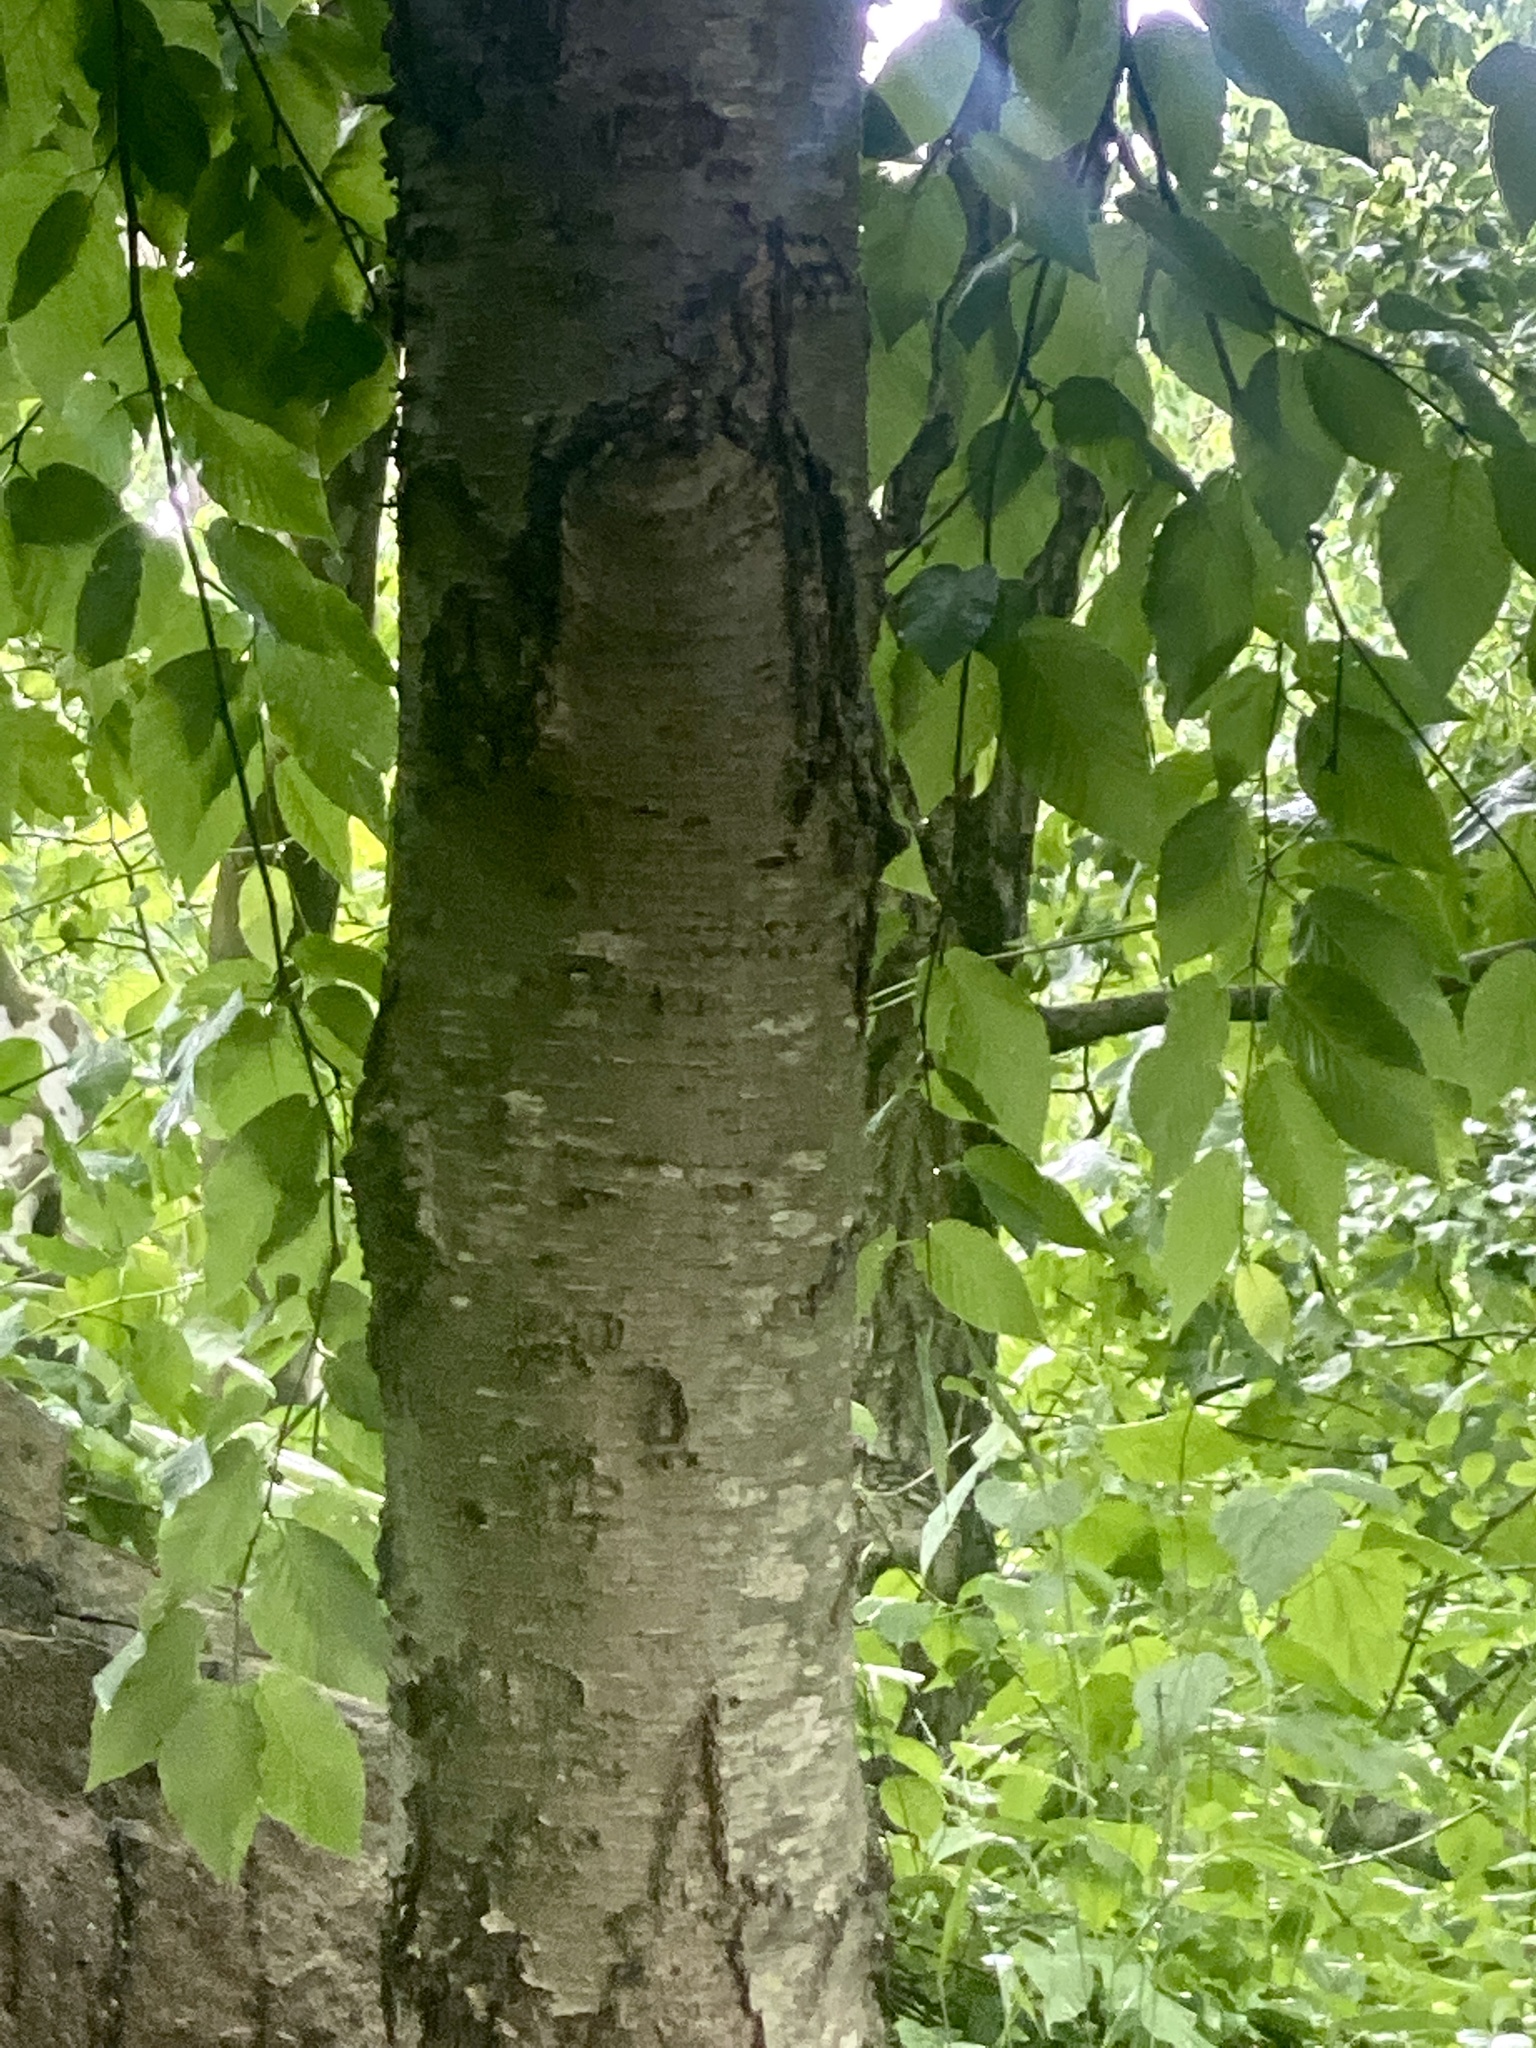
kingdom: Plantae
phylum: Tracheophyta
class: Magnoliopsida
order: Fagales
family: Betulaceae
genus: Betula
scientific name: Betula lenta
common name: Black birch
